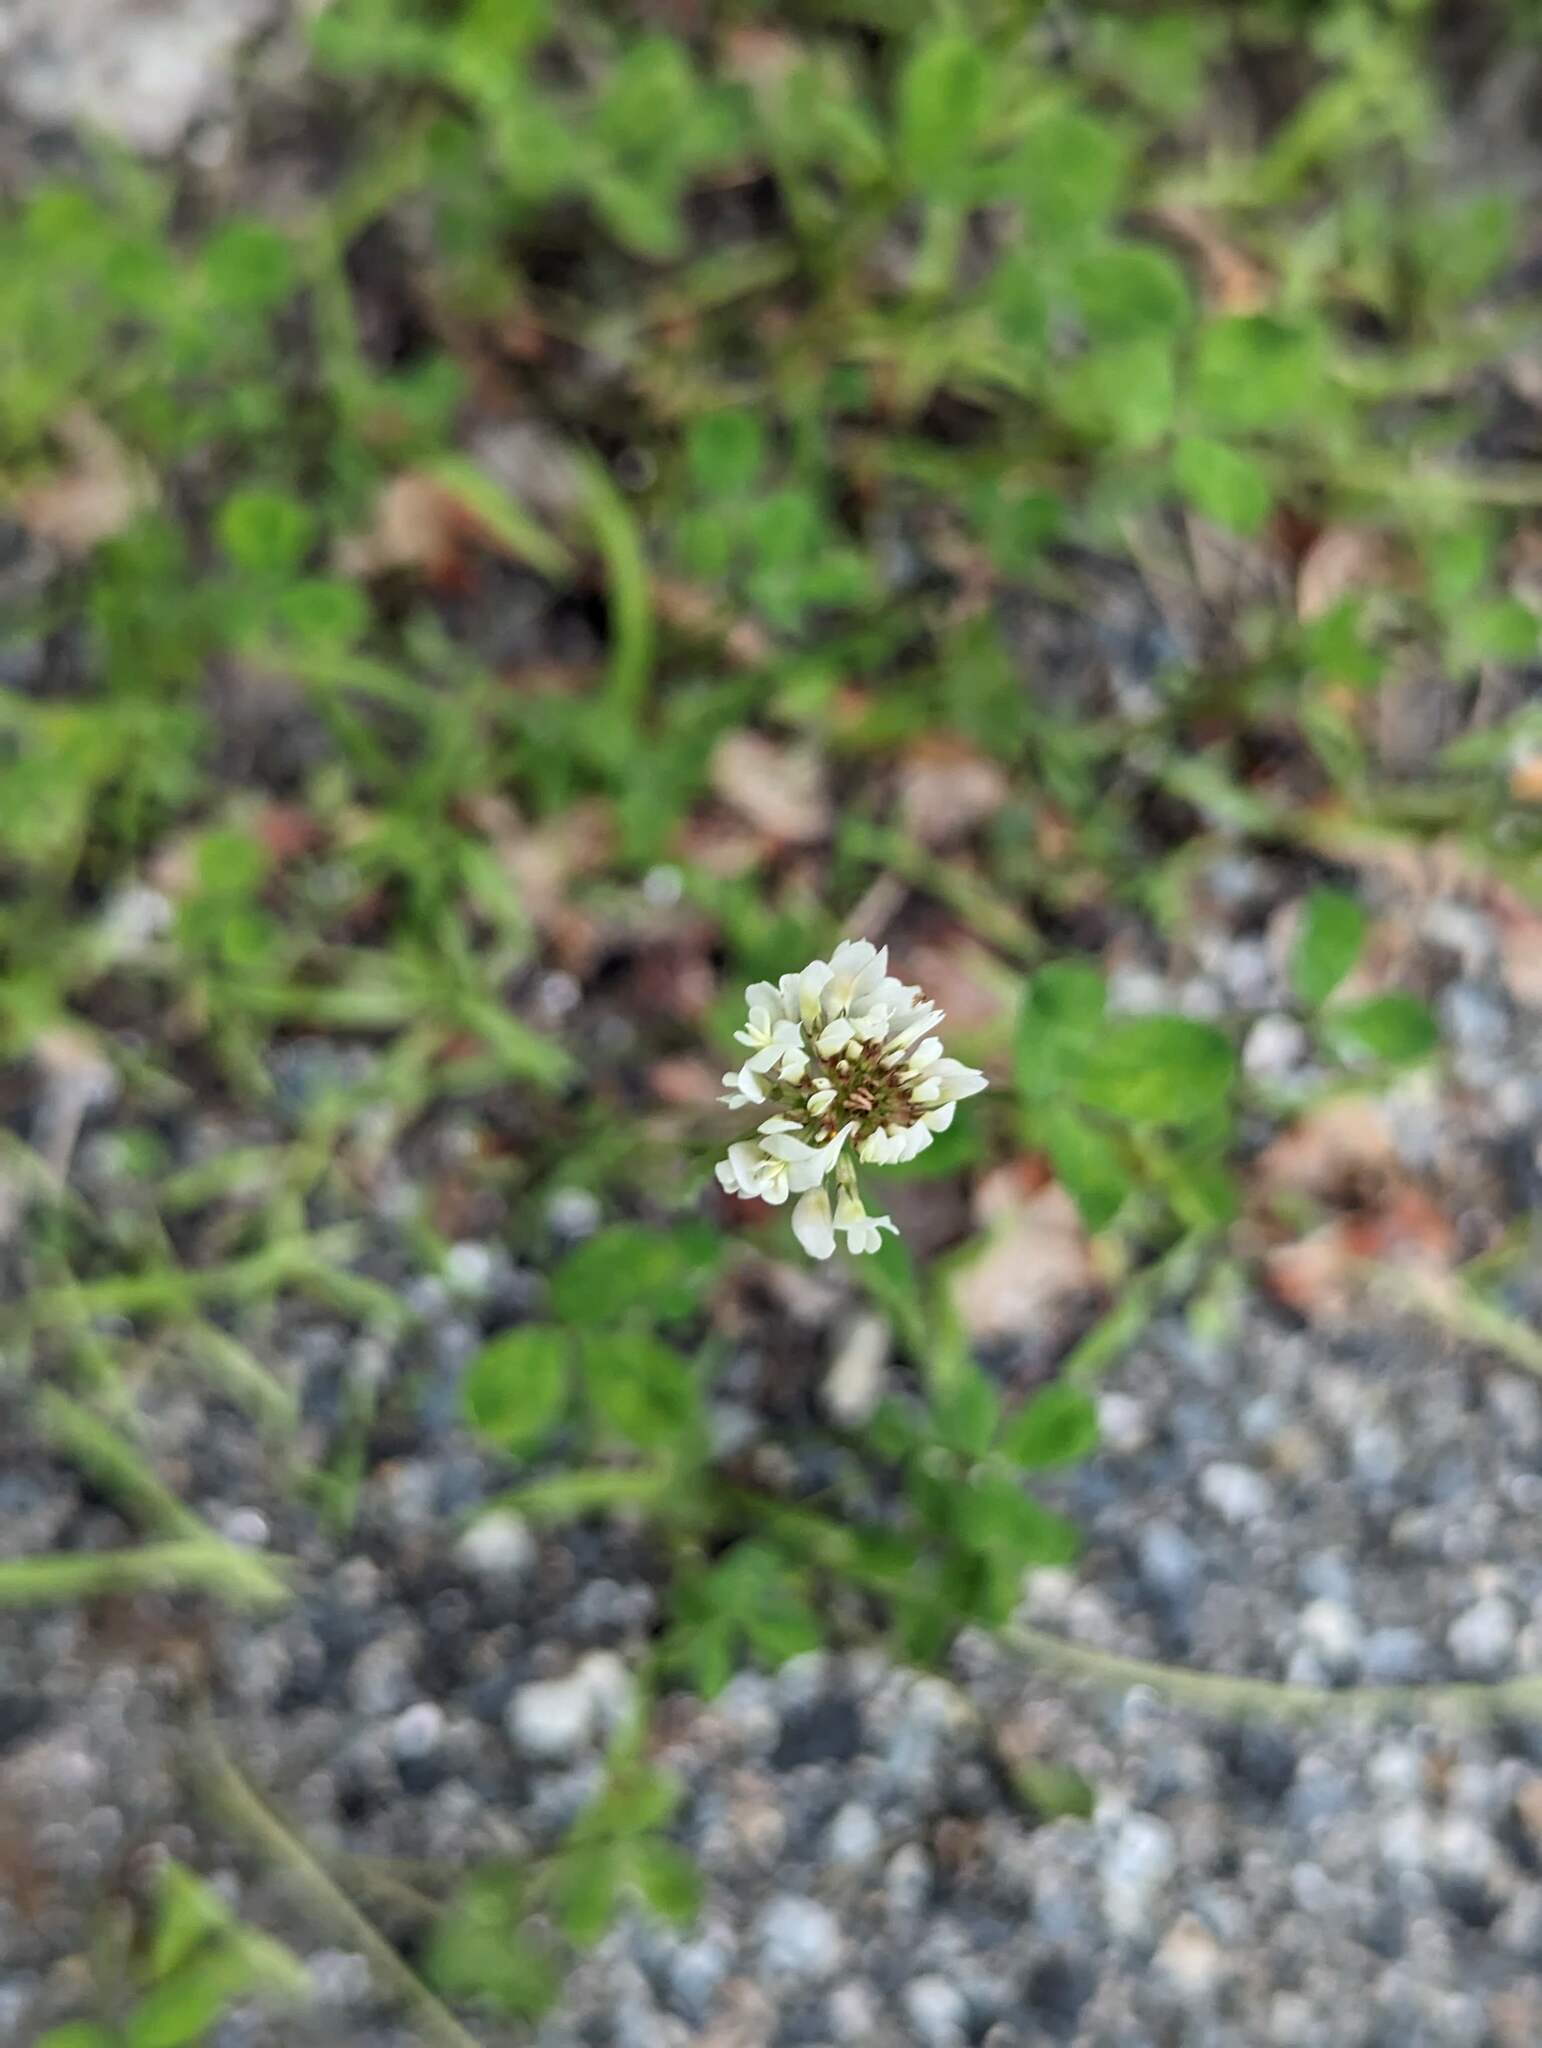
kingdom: Plantae
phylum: Tracheophyta
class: Magnoliopsida
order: Fabales
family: Fabaceae
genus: Trifolium
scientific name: Trifolium repens
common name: White clover
